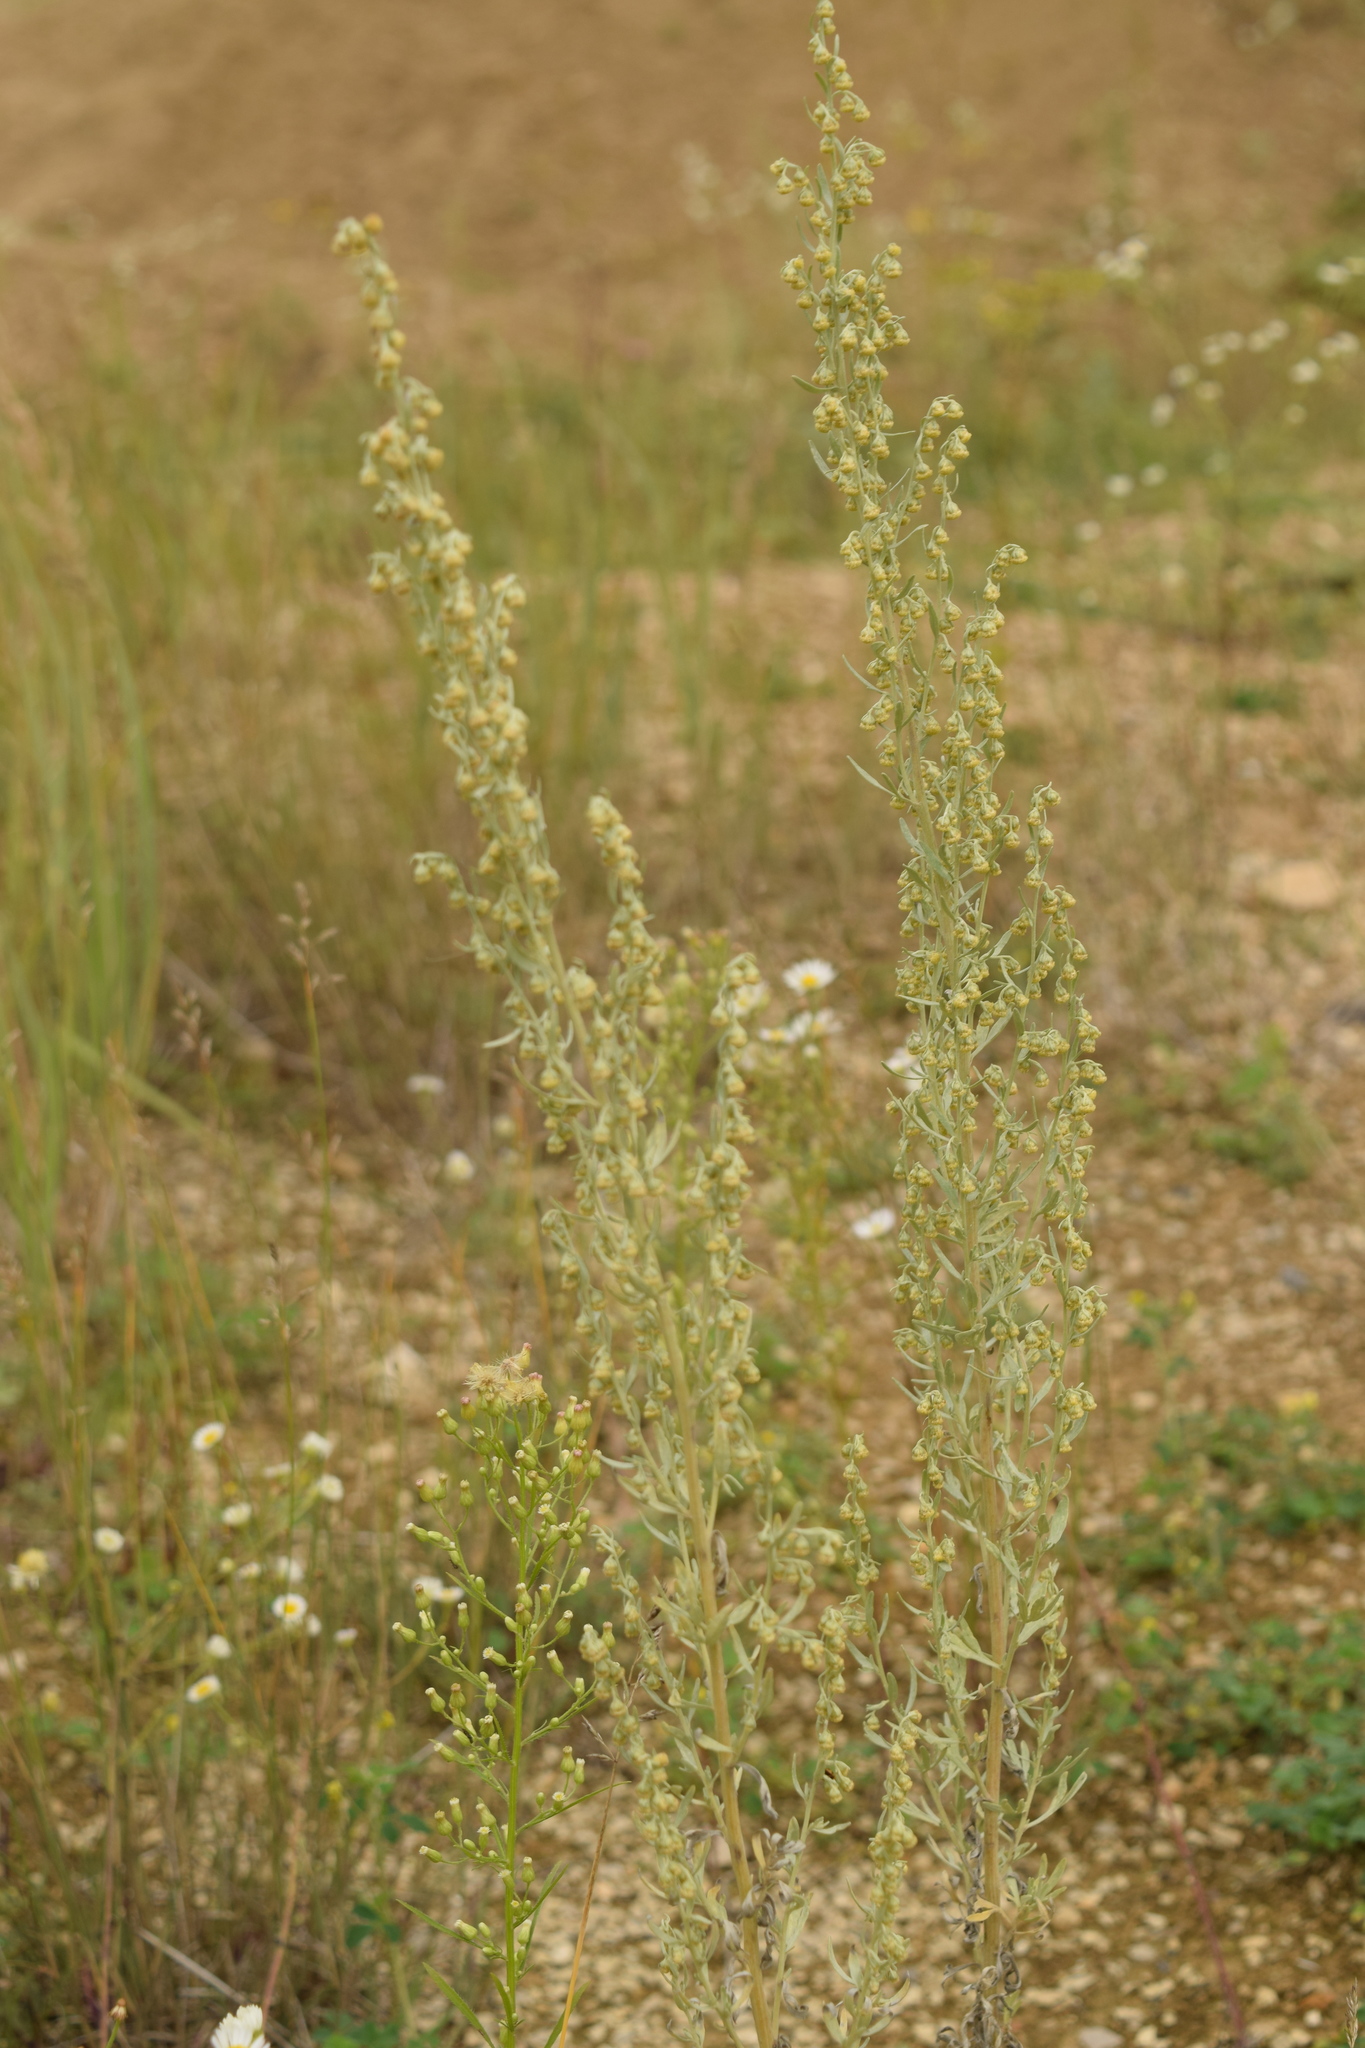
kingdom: Plantae
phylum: Tracheophyta
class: Magnoliopsida
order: Asterales
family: Asteraceae
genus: Artemisia
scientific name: Artemisia absinthium
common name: Wormwood
